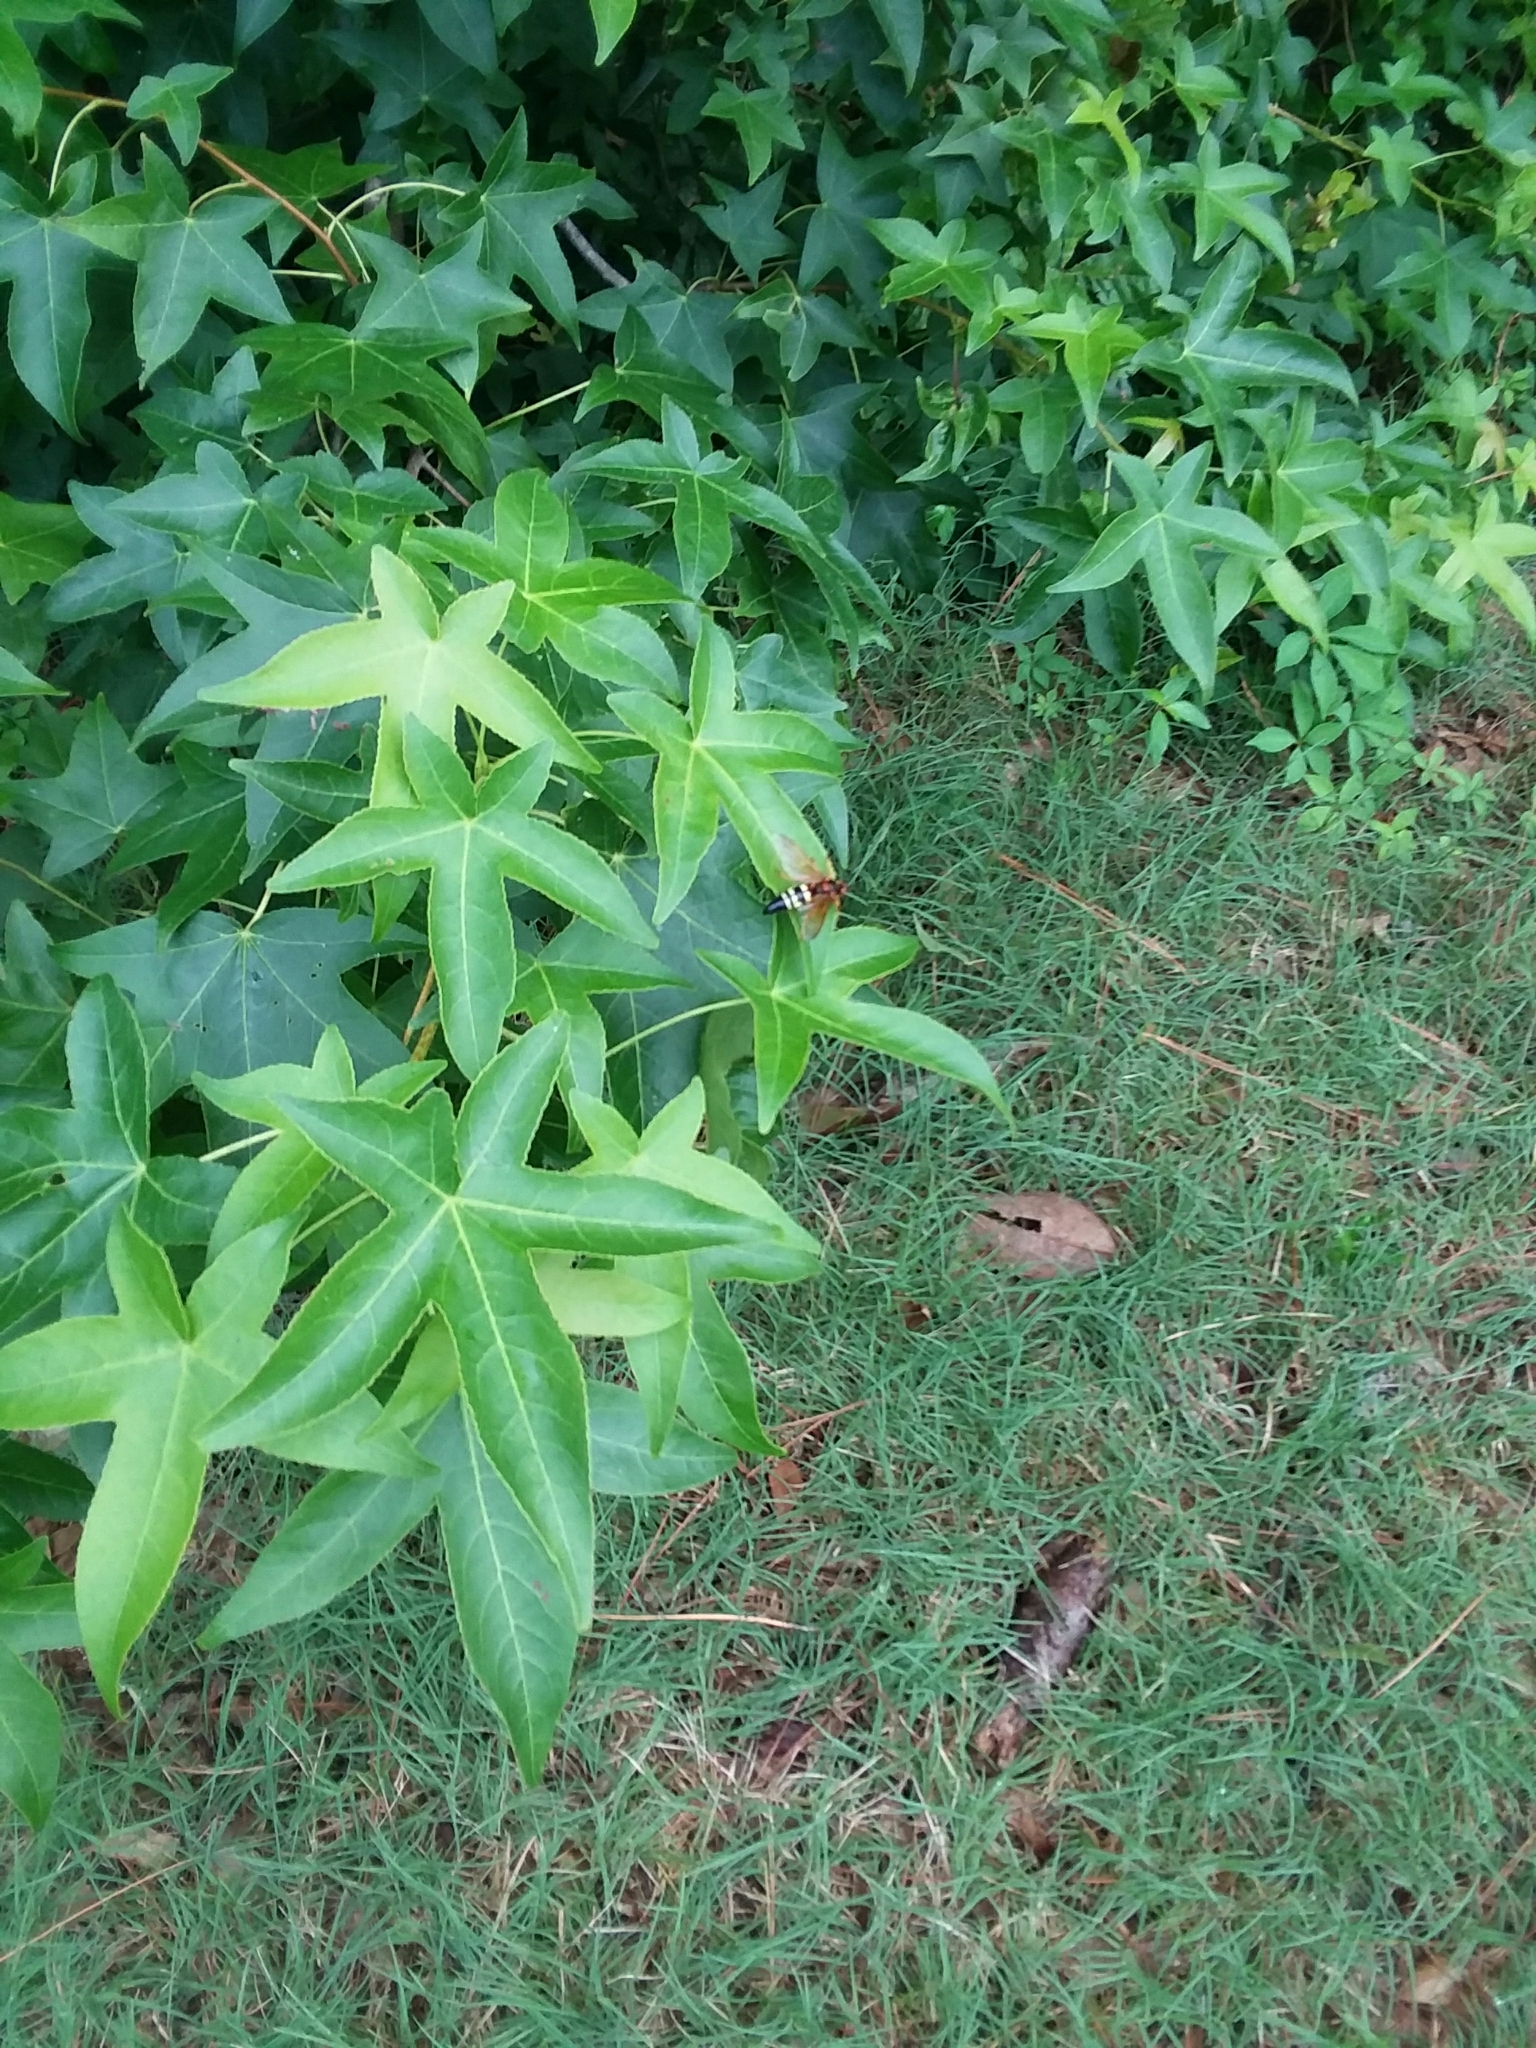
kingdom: Animalia
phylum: Arthropoda
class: Insecta
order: Hymenoptera
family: Crabronidae
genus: Sphecius
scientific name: Sphecius speciosus
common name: Cicada killer
